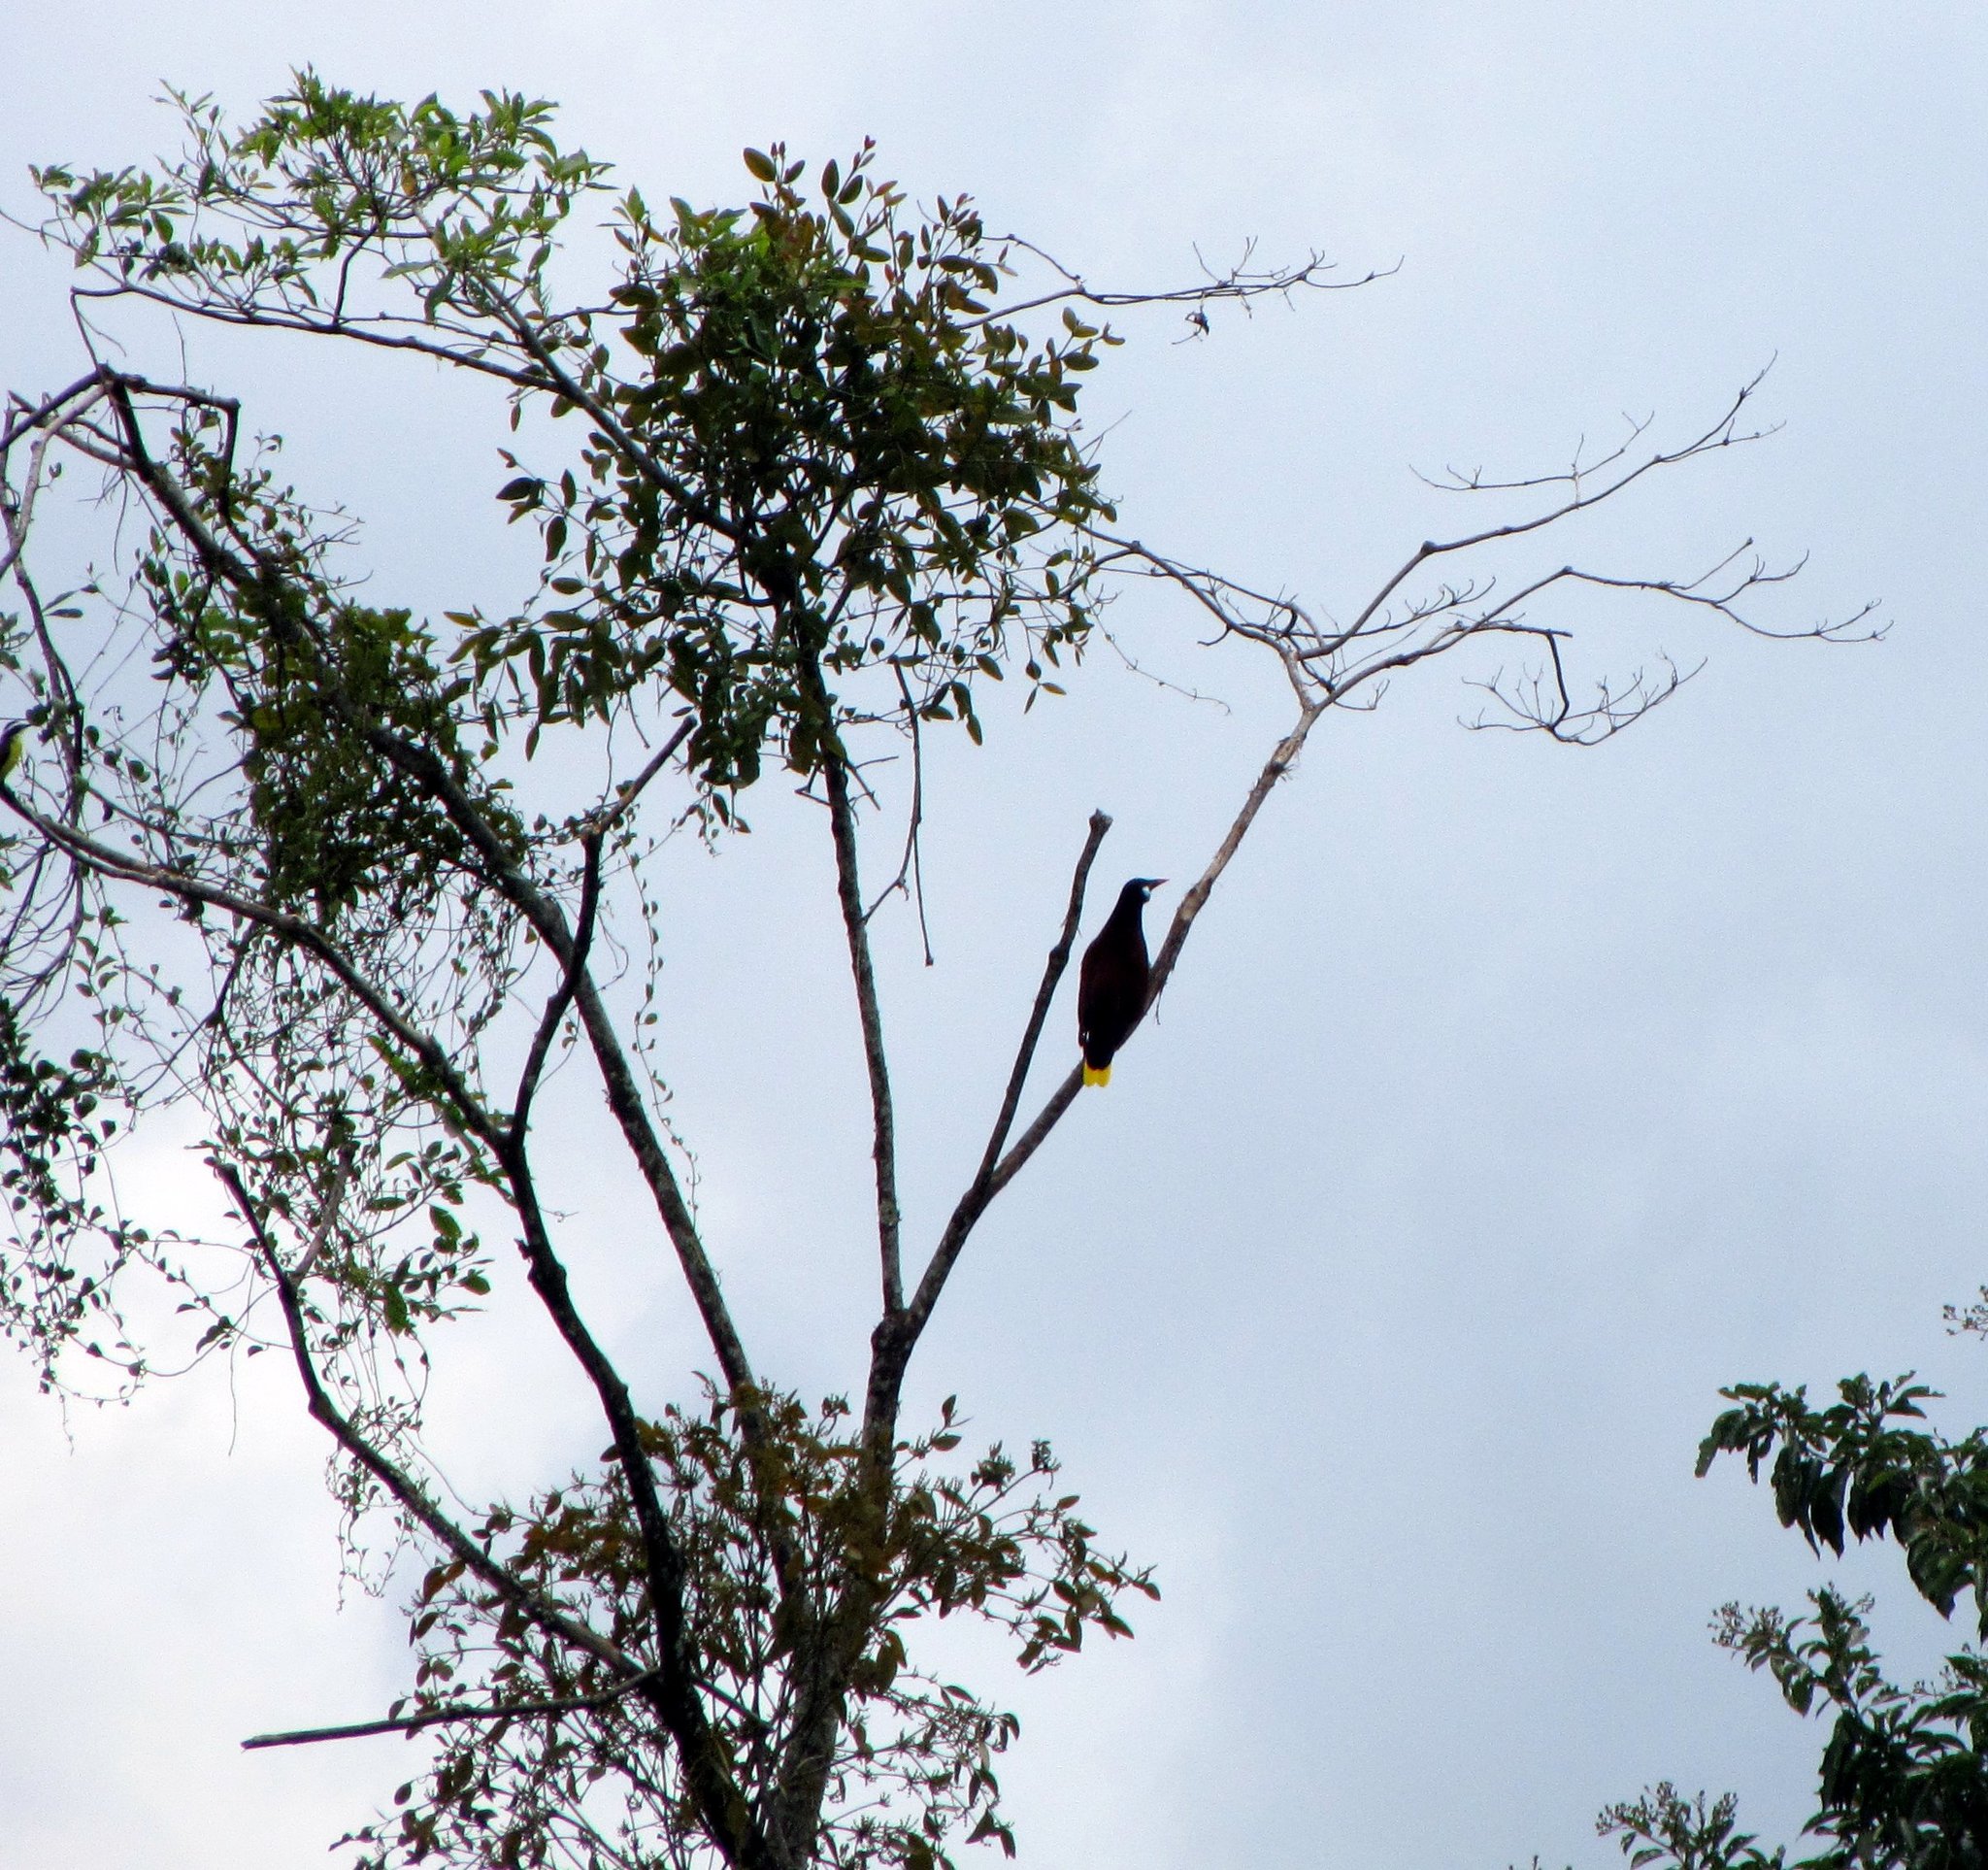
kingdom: Animalia
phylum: Chordata
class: Aves
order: Passeriformes
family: Icteridae
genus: Psarocolius
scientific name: Psarocolius montezuma
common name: Montezuma oropendola
